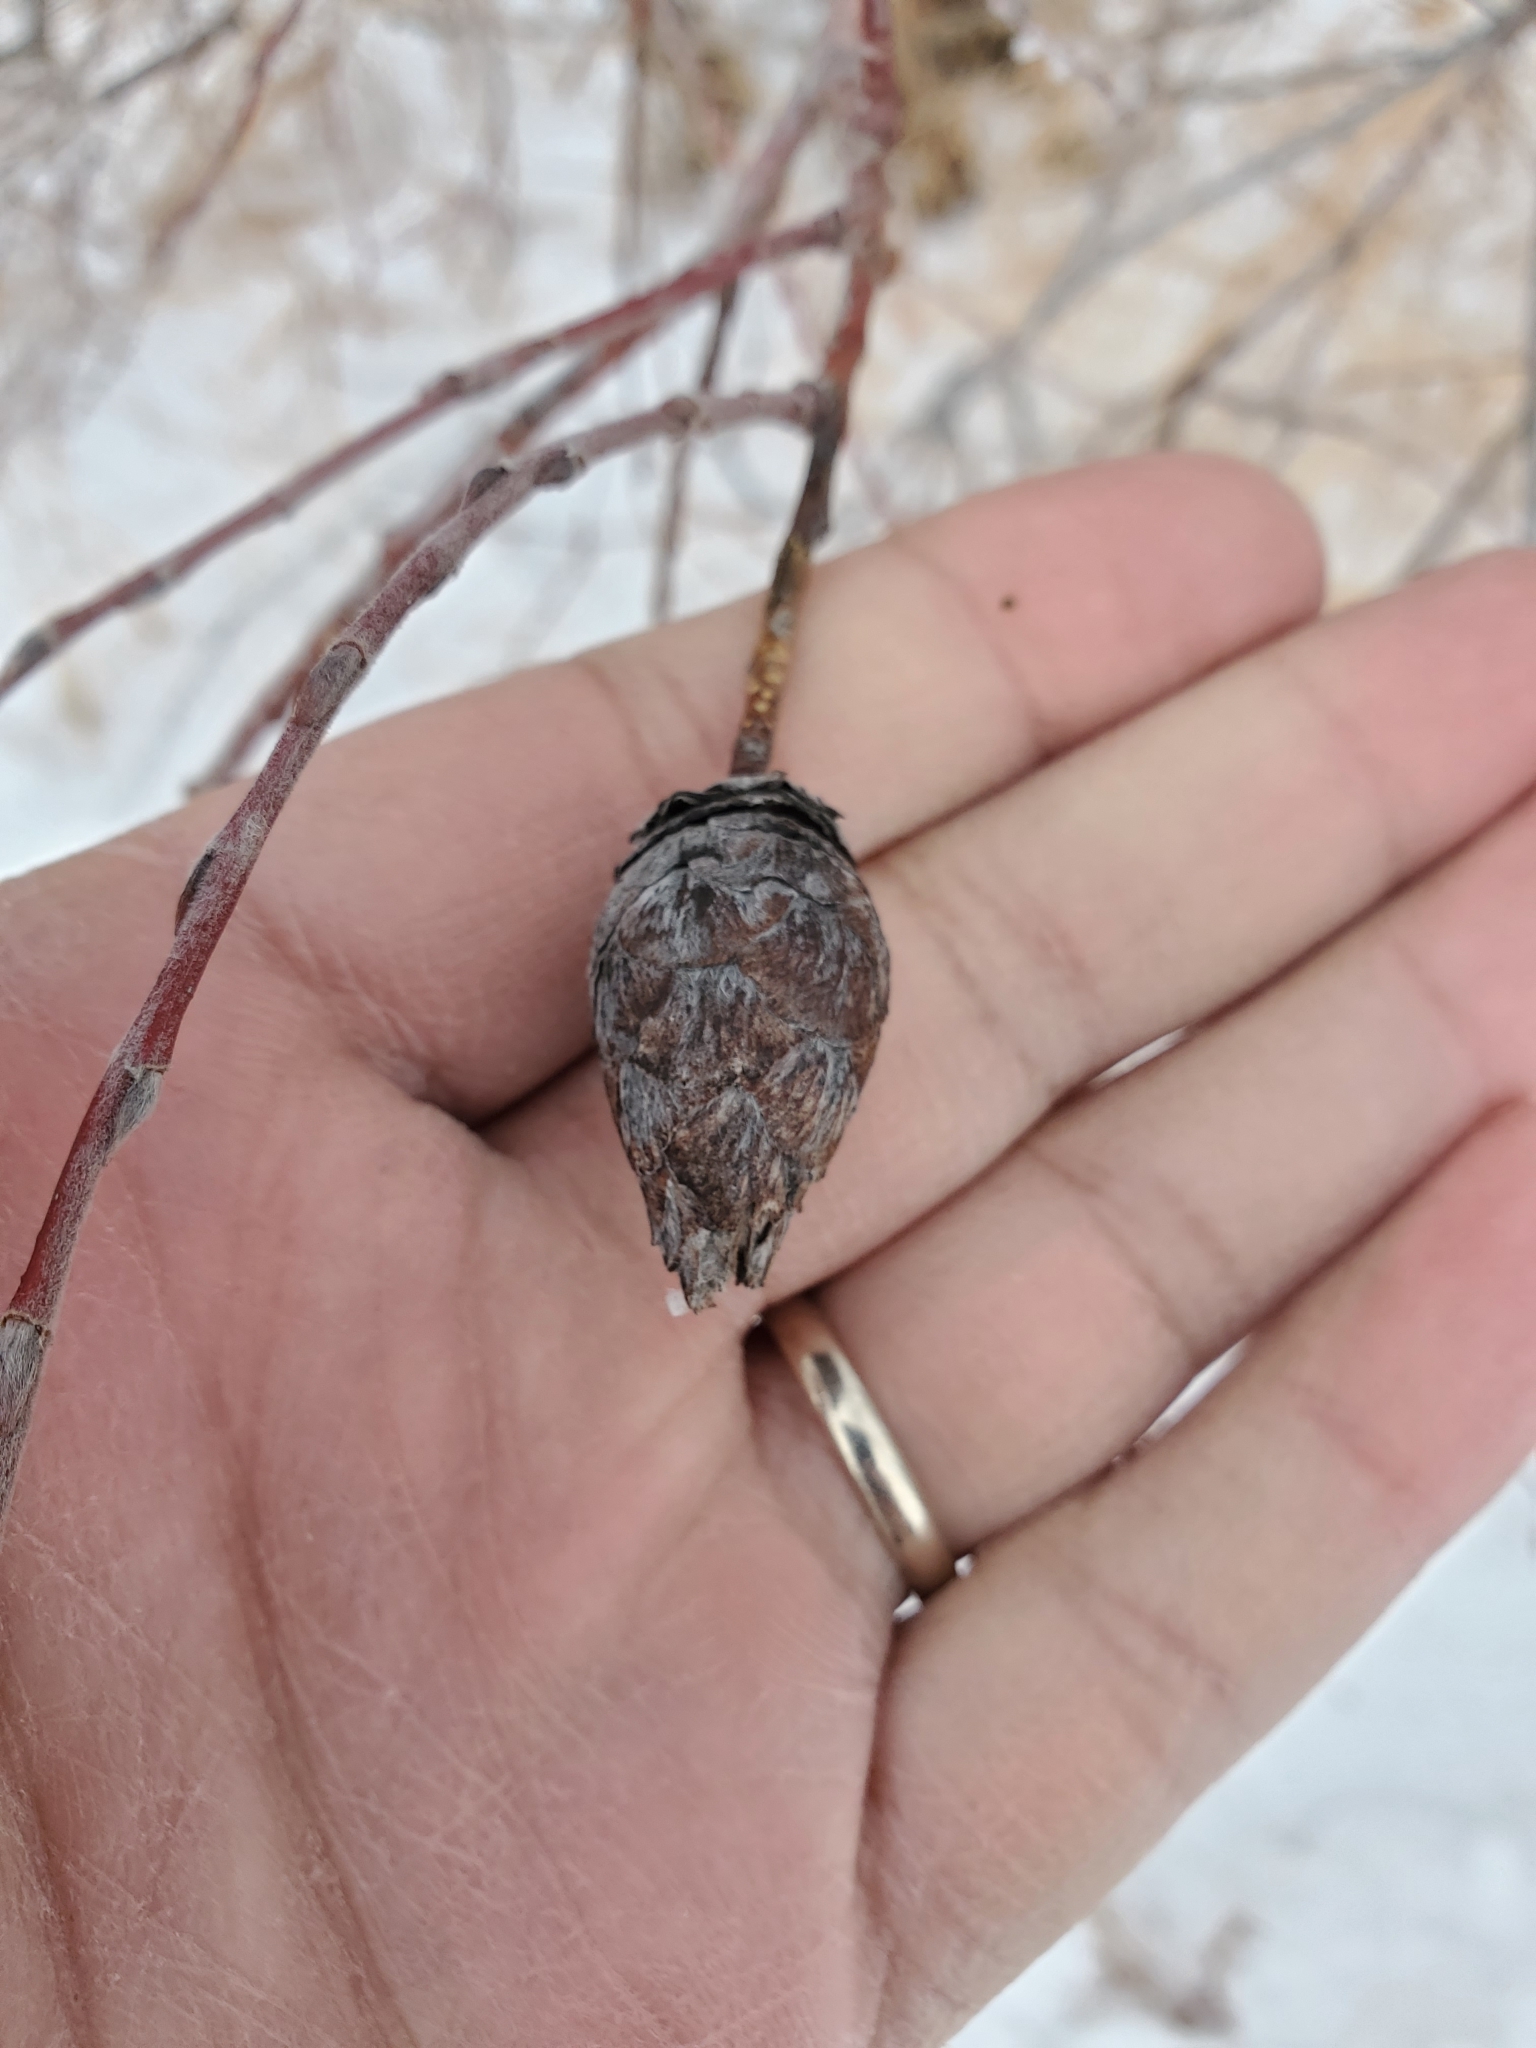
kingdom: Animalia
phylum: Arthropoda
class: Insecta
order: Diptera
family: Cecidomyiidae
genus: Rabdophaga
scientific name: Rabdophaga strobiloides
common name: Willow pinecone gall midge
